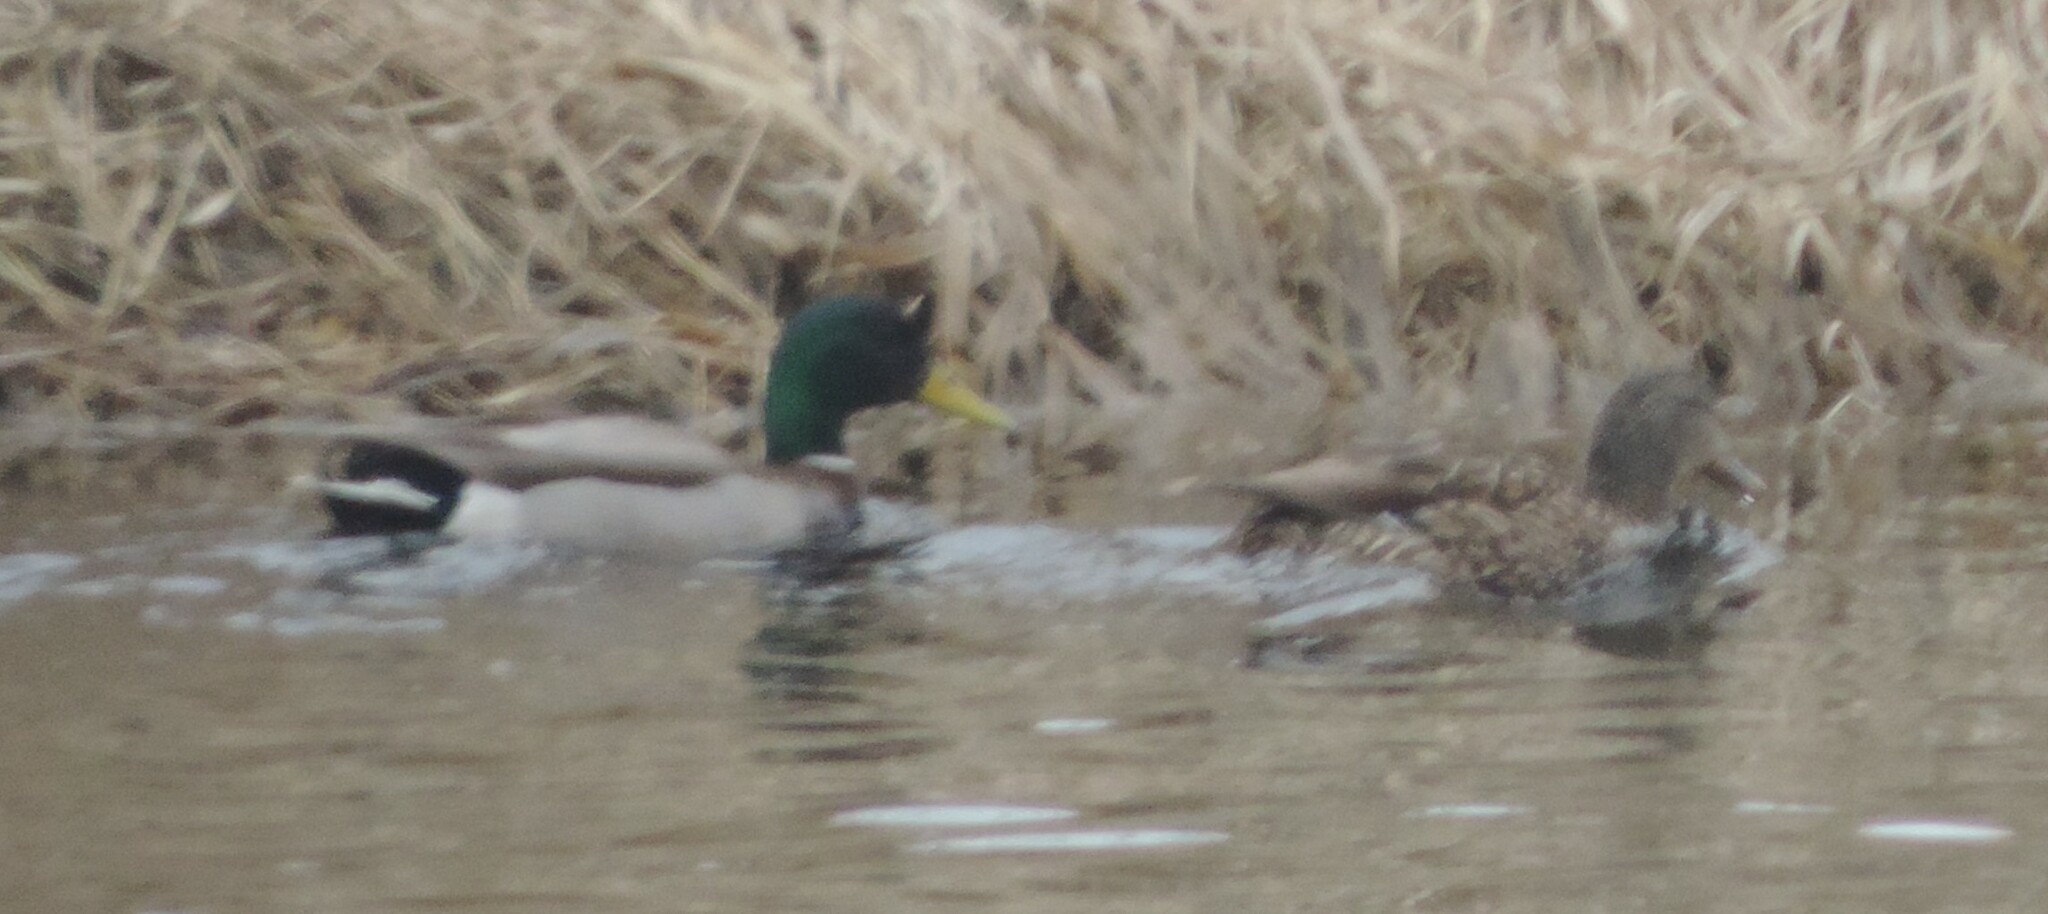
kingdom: Animalia
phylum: Chordata
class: Aves
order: Anseriformes
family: Anatidae
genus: Anas
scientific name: Anas platyrhynchos
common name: Mallard
